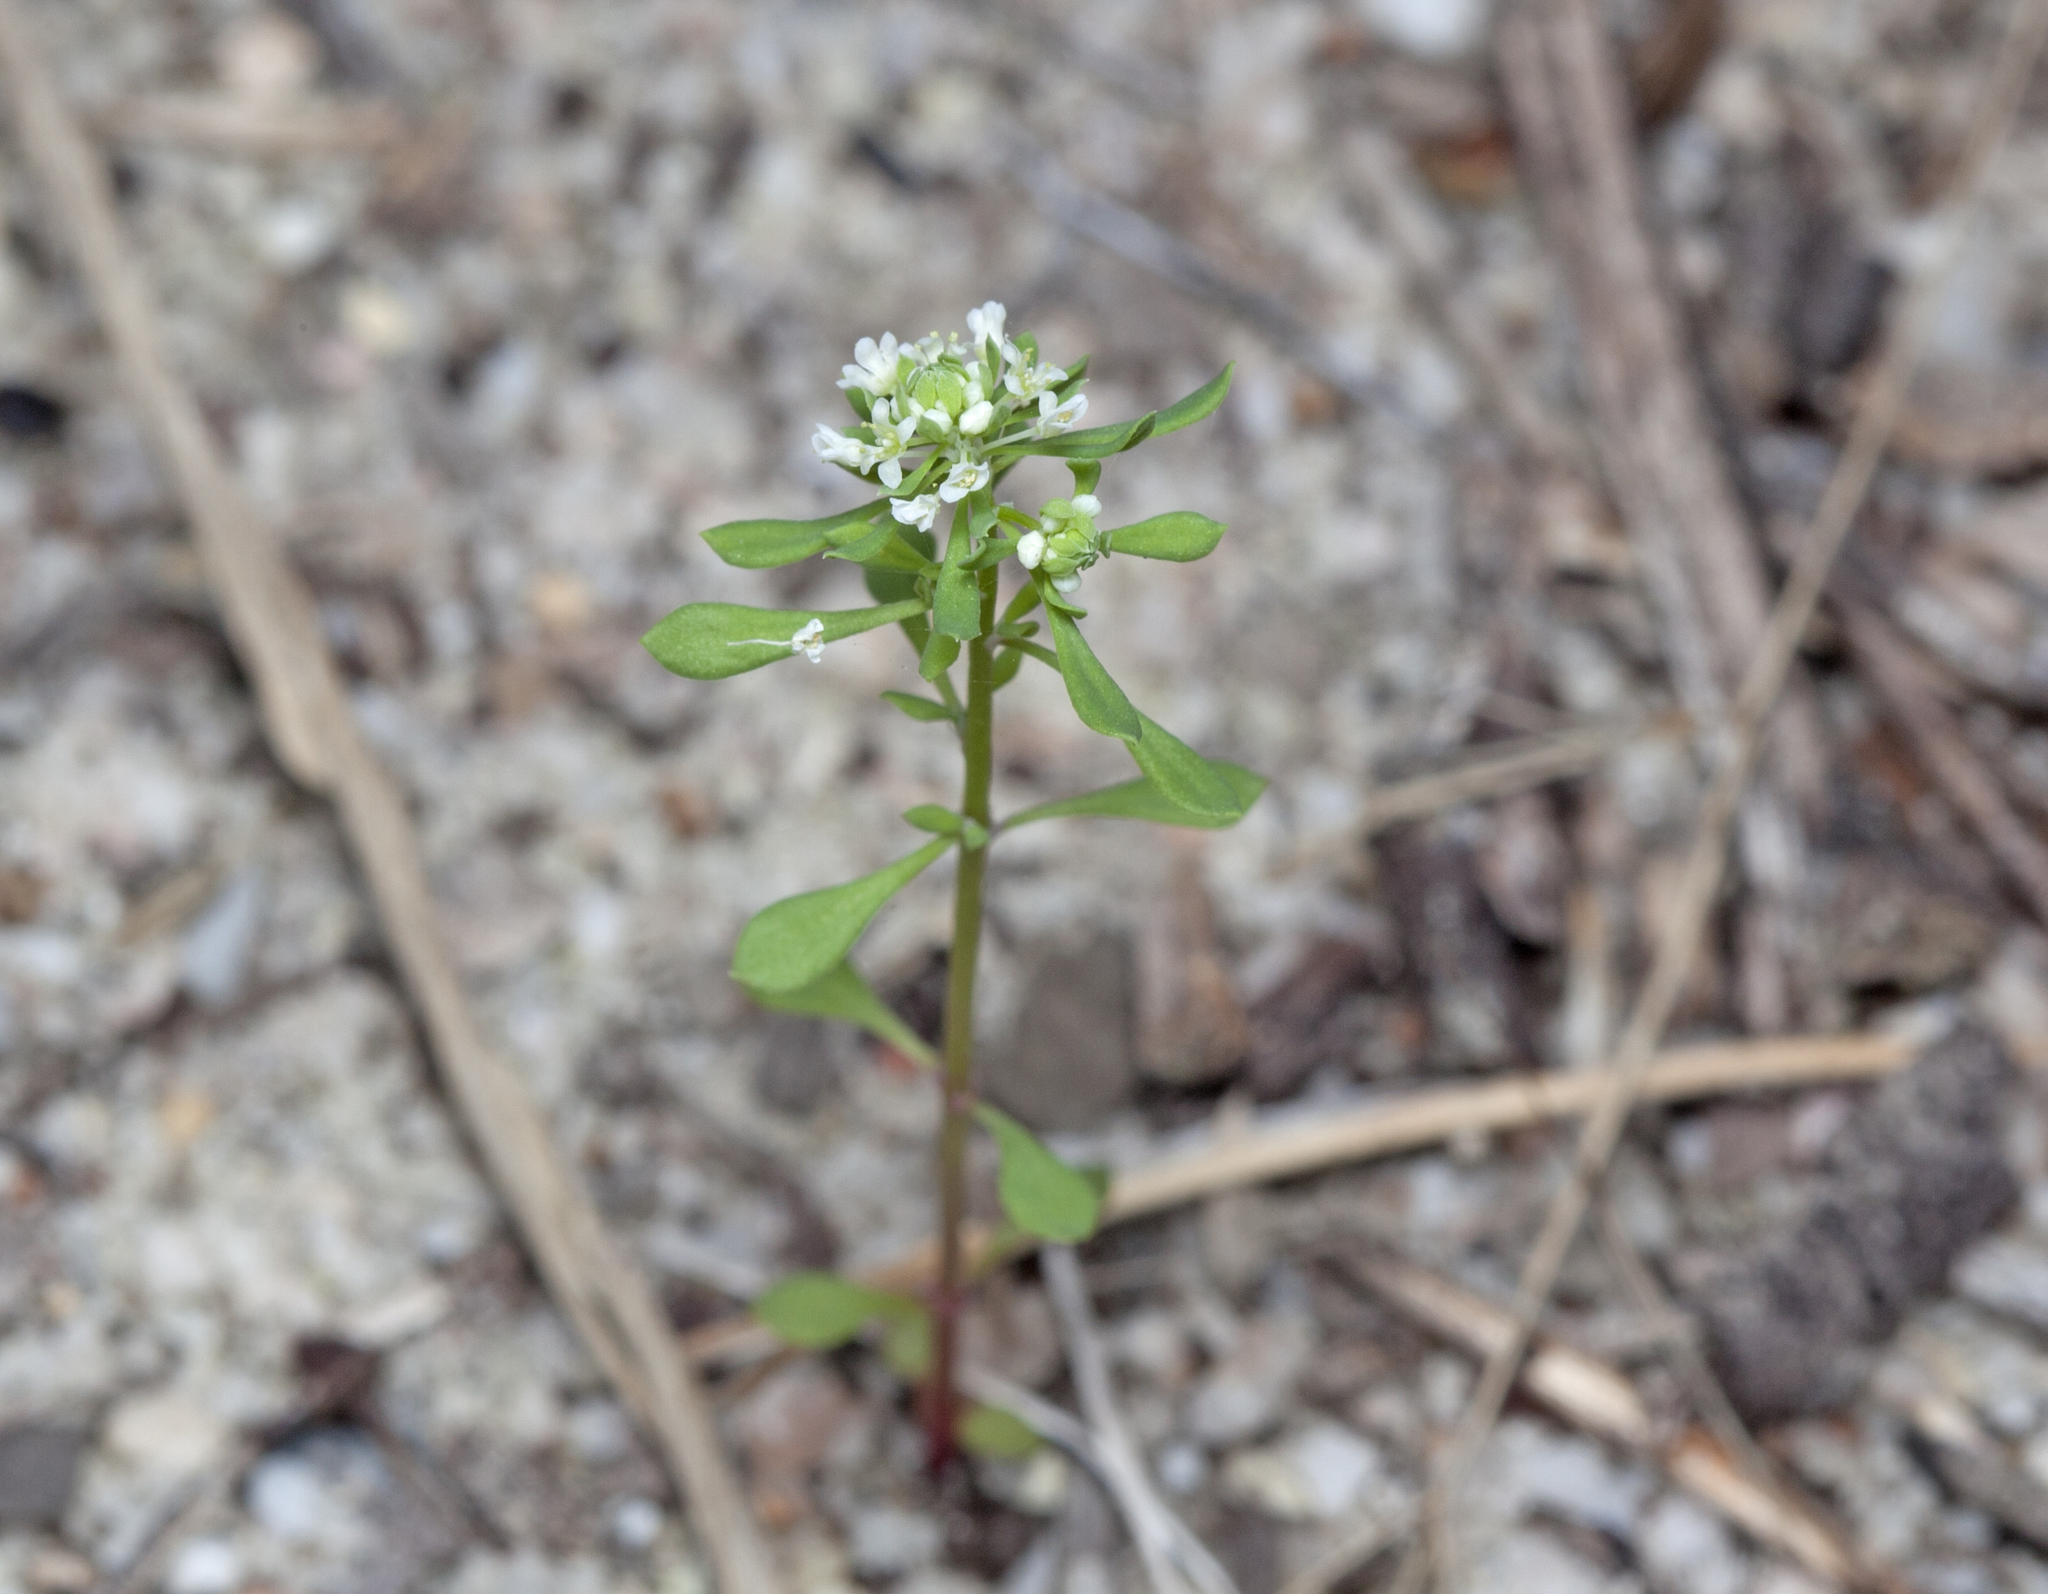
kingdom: Plantae
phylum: Tracheophyta
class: Magnoliopsida
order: Malpighiales
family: Phyllanthaceae
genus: Poranthera
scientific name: Poranthera microphylla
